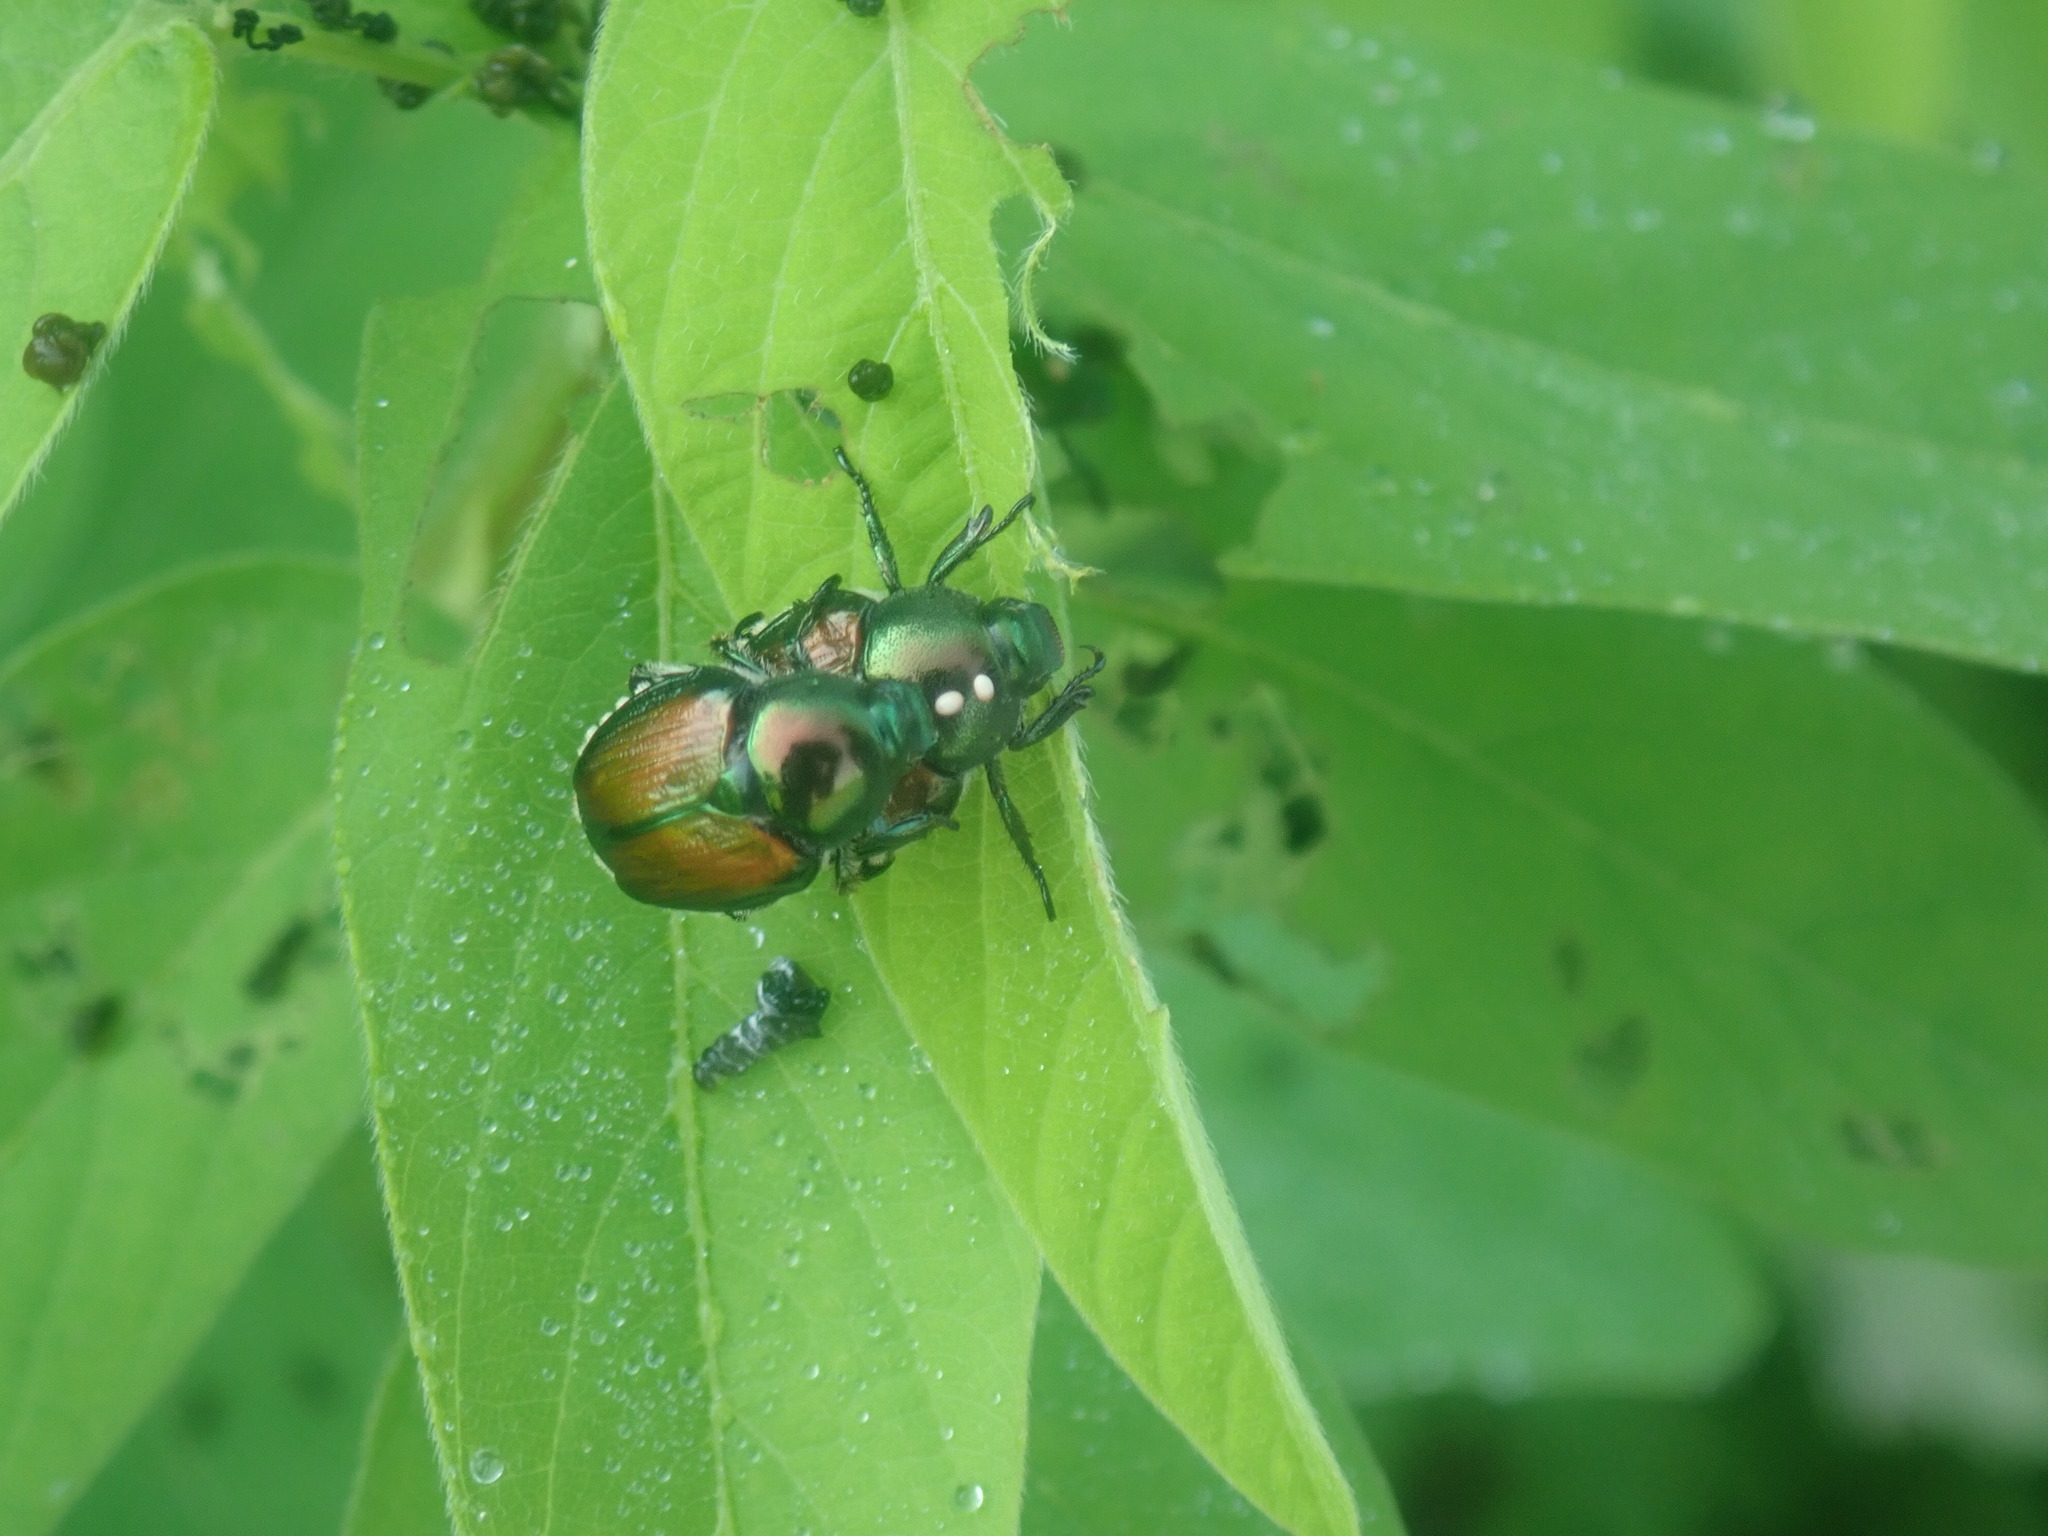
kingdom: Animalia
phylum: Arthropoda
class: Insecta
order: Diptera
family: Tachinidae
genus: Istocheta
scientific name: Istocheta aldrichi
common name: Parasitic wasp
